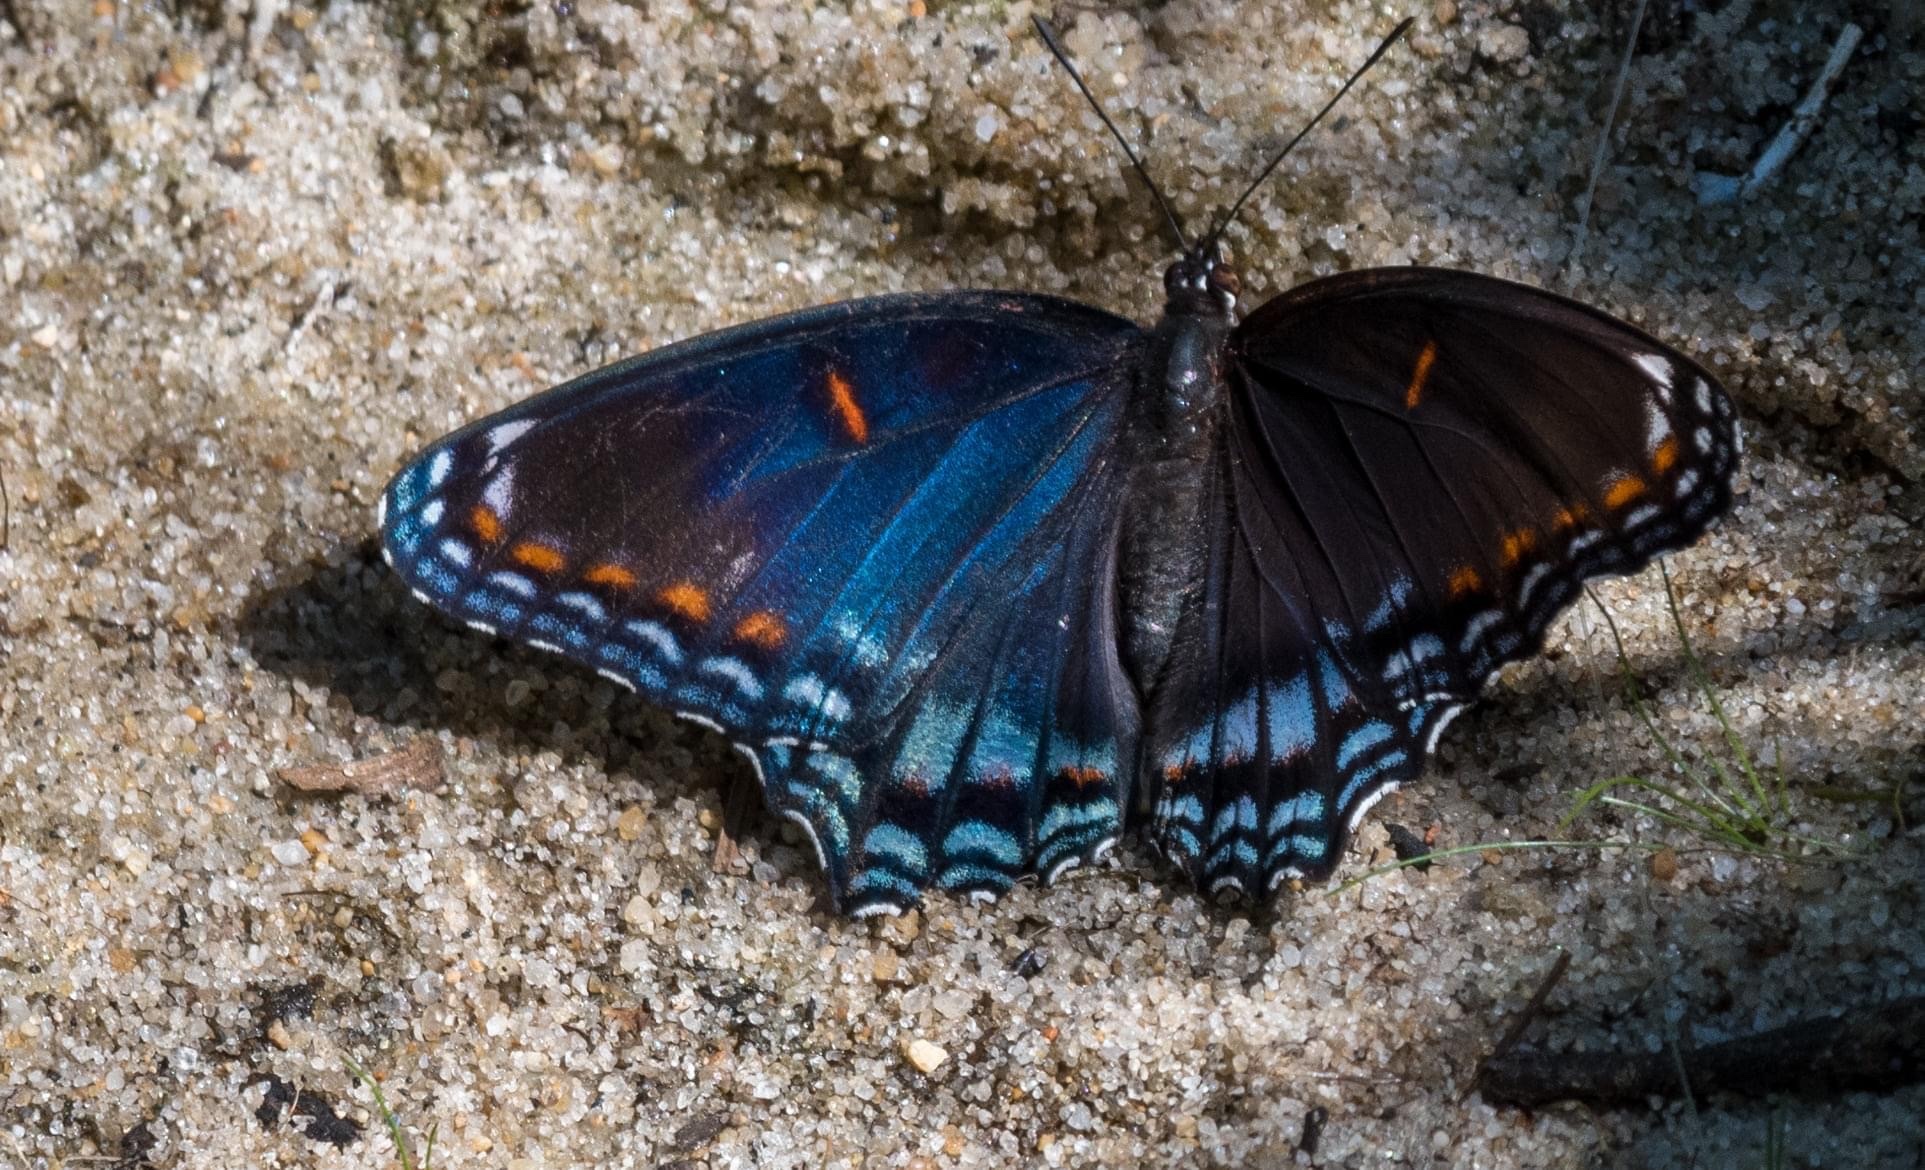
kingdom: Animalia
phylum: Arthropoda
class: Insecta
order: Lepidoptera
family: Nymphalidae
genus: Limenitis
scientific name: Limenitis astyanax
